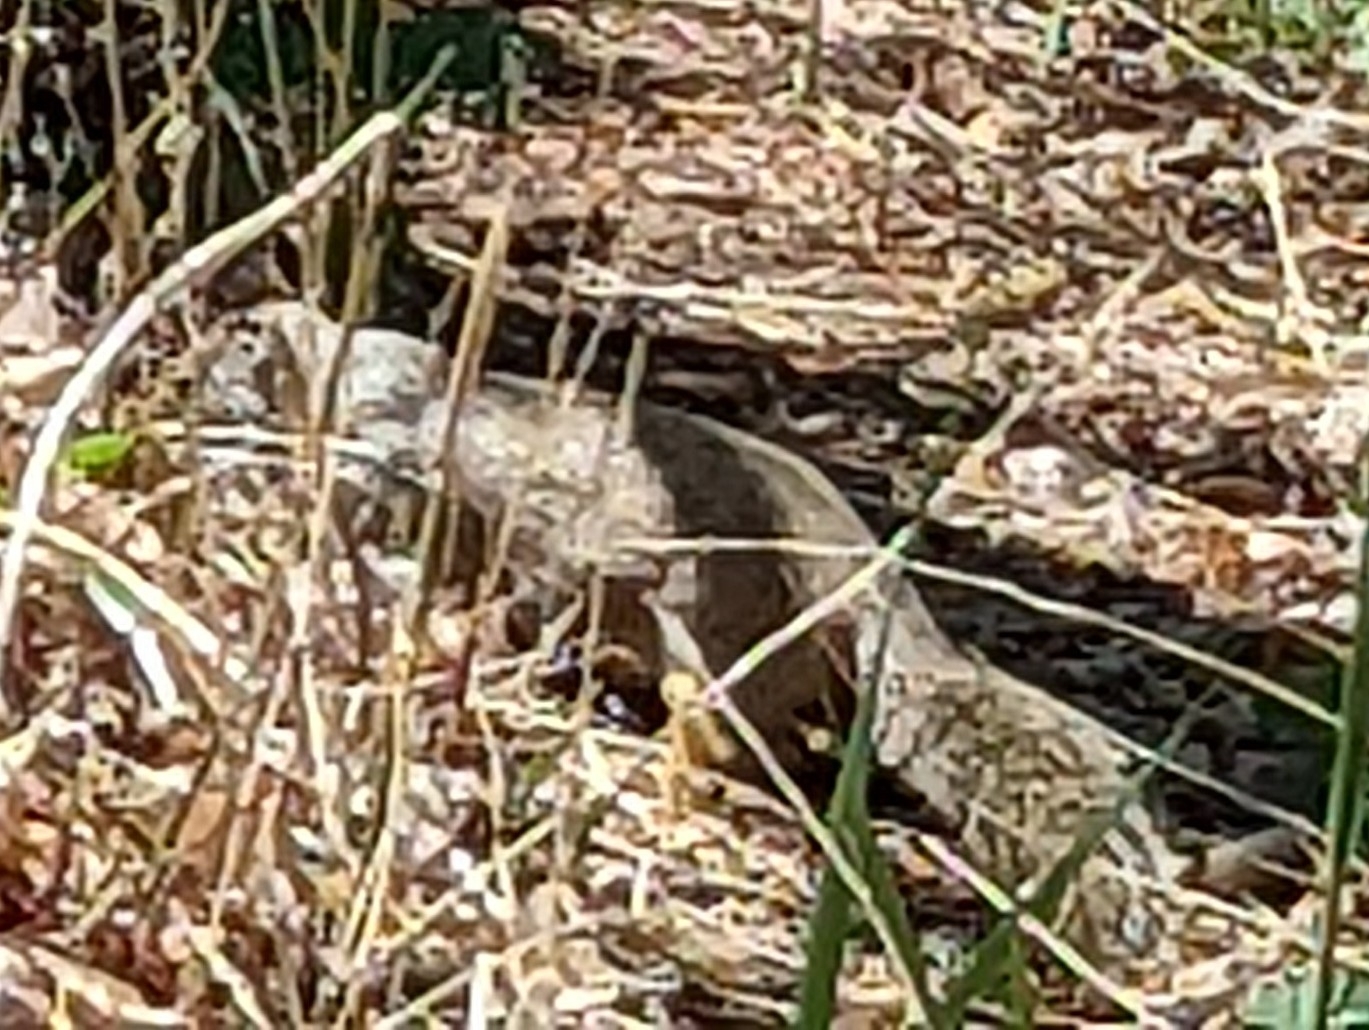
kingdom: Animalia
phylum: Chordata
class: Mammalia
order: Rodentia
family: Sciuridae
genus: Otospermophilus
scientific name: Otospermophilus beecheyi
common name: California ground squirrel
